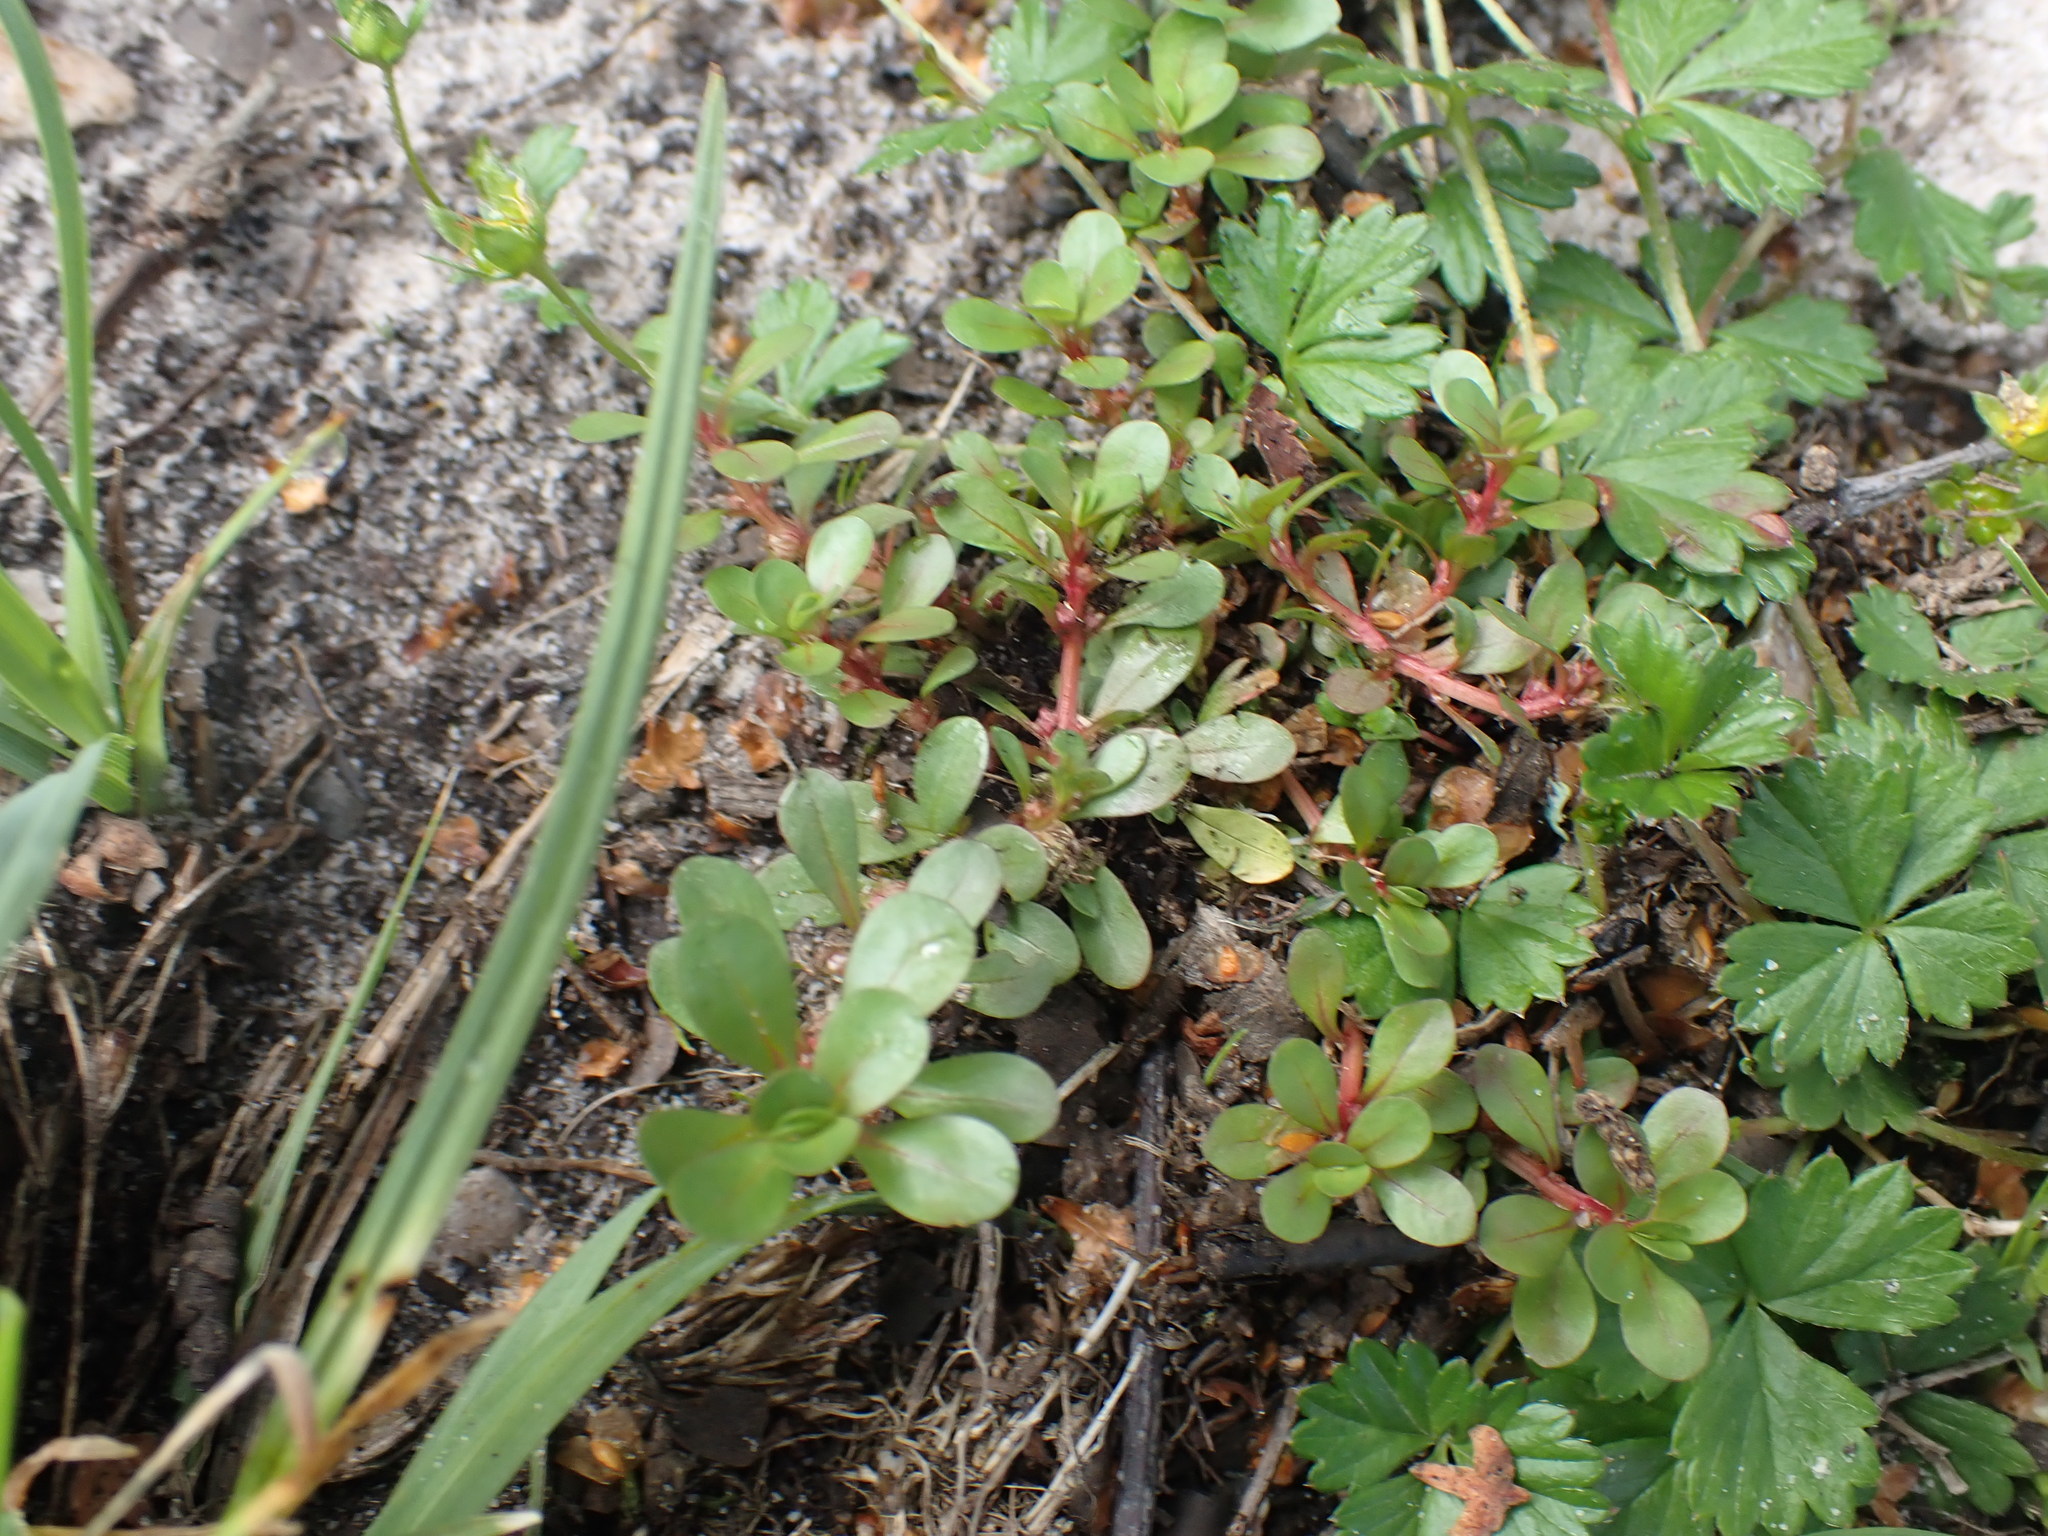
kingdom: Plantae
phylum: Tracheophyta
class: Magnoliopsida
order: Myrtales
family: Lythraceae
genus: Lythrum
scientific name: Lythrum portula
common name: Water purslane
